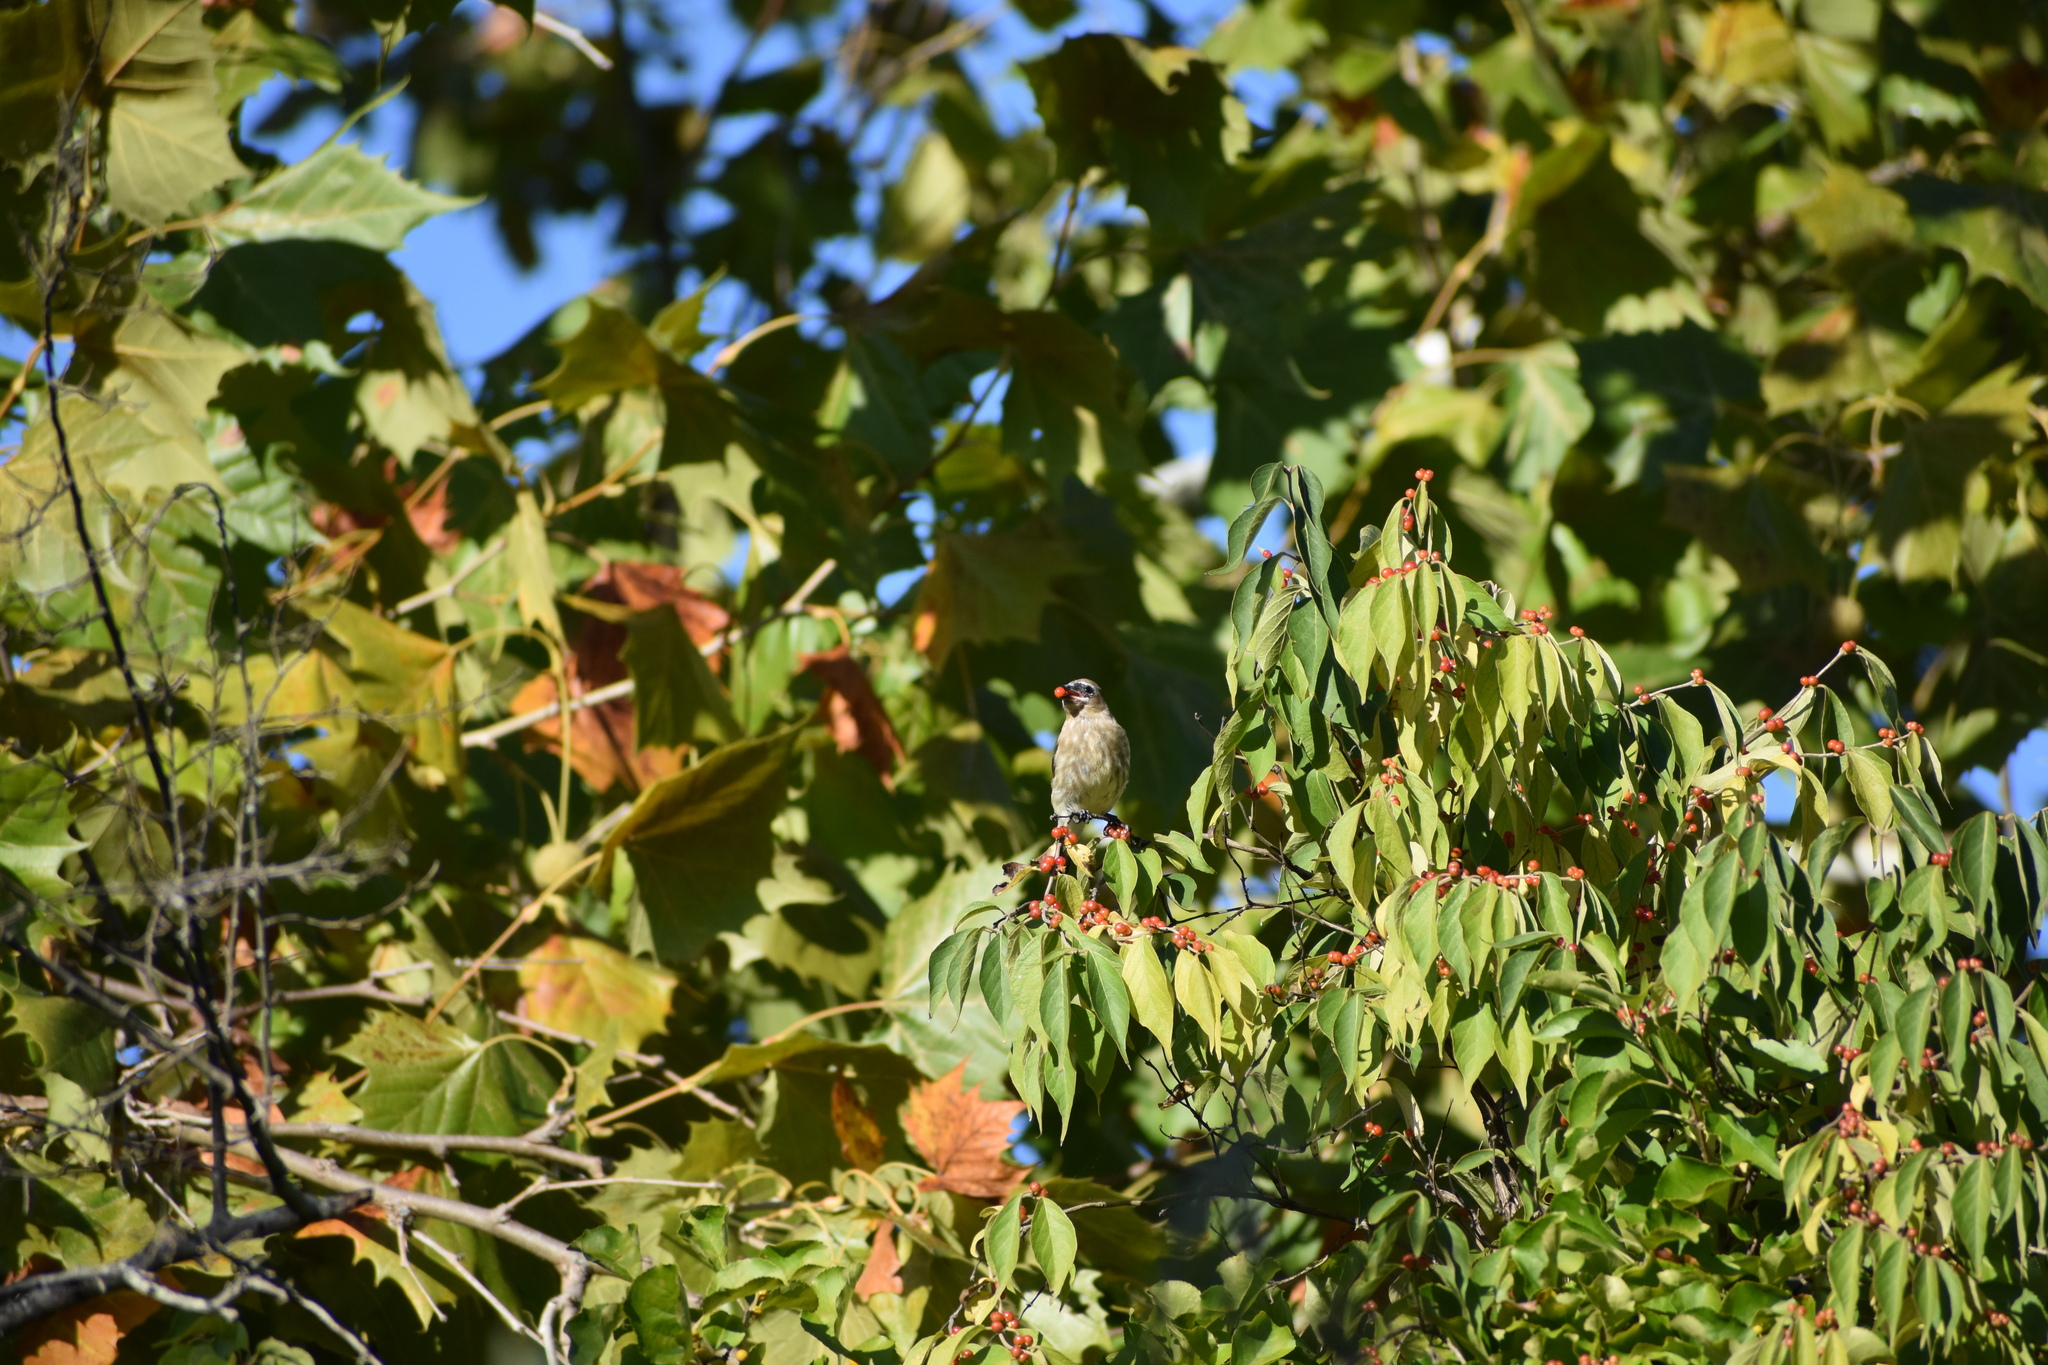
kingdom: Animalia
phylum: Chordata
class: Aves
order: Passeriformes
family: Bombycillidae
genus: Bombycilla
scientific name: Bombycilla cedrorum
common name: Cedar waxwing
